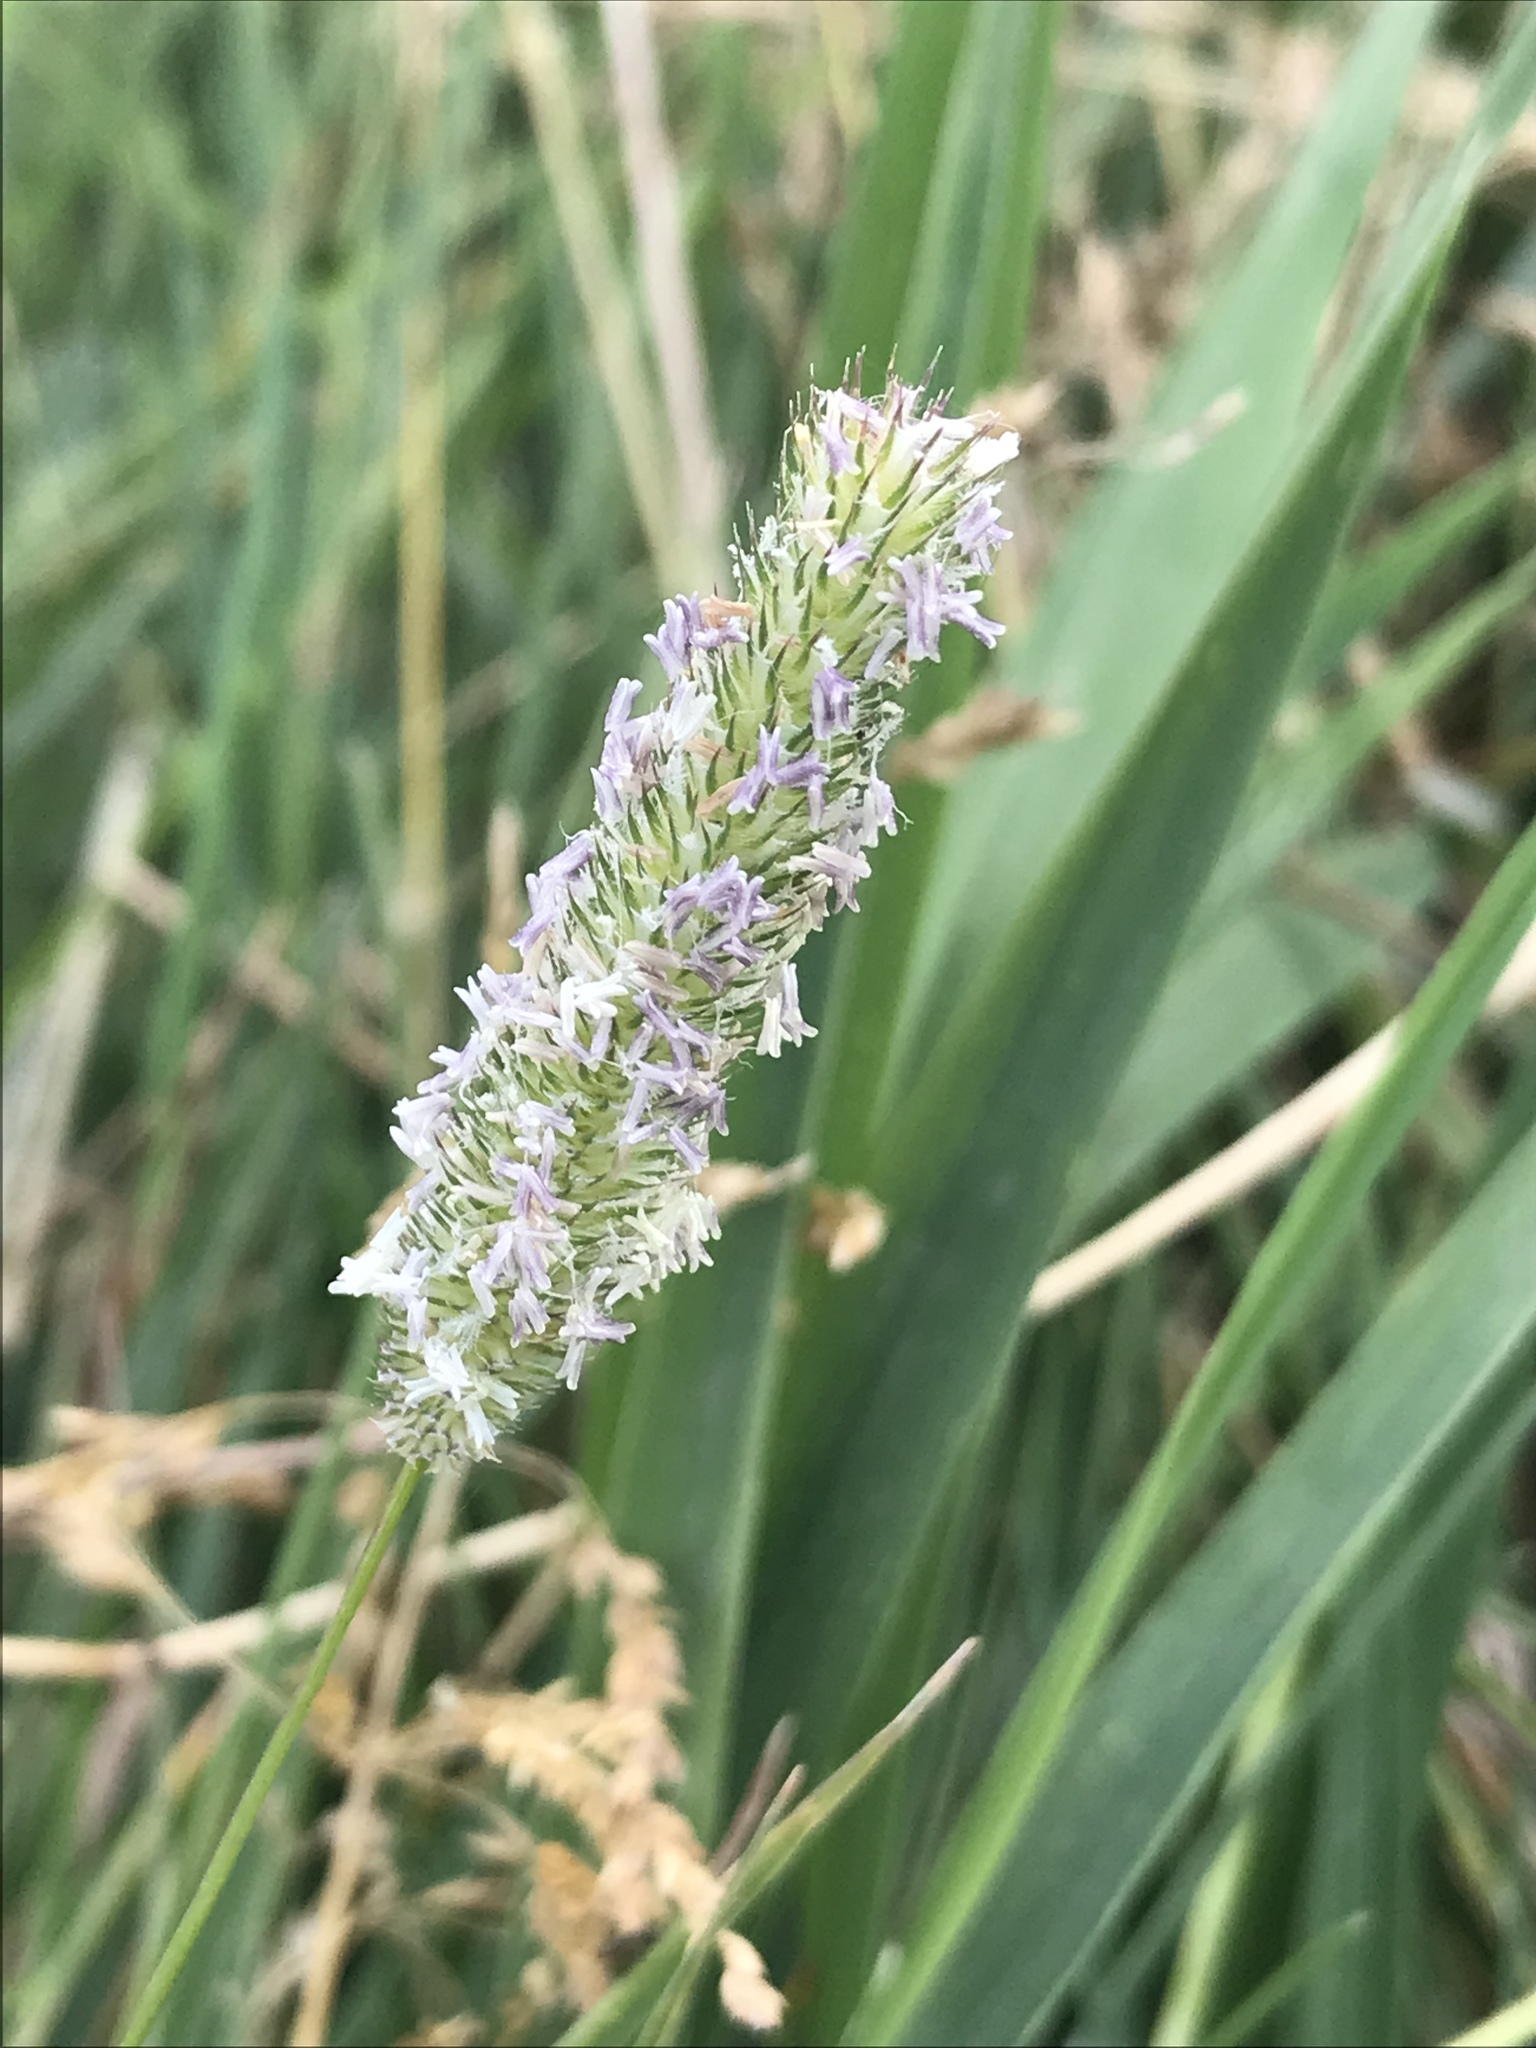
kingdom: Plantae
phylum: Tracheophyta
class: Liliopsida
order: Poales
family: Poaceae
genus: Phleum
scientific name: Phleum pratense
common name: Timothy grass
